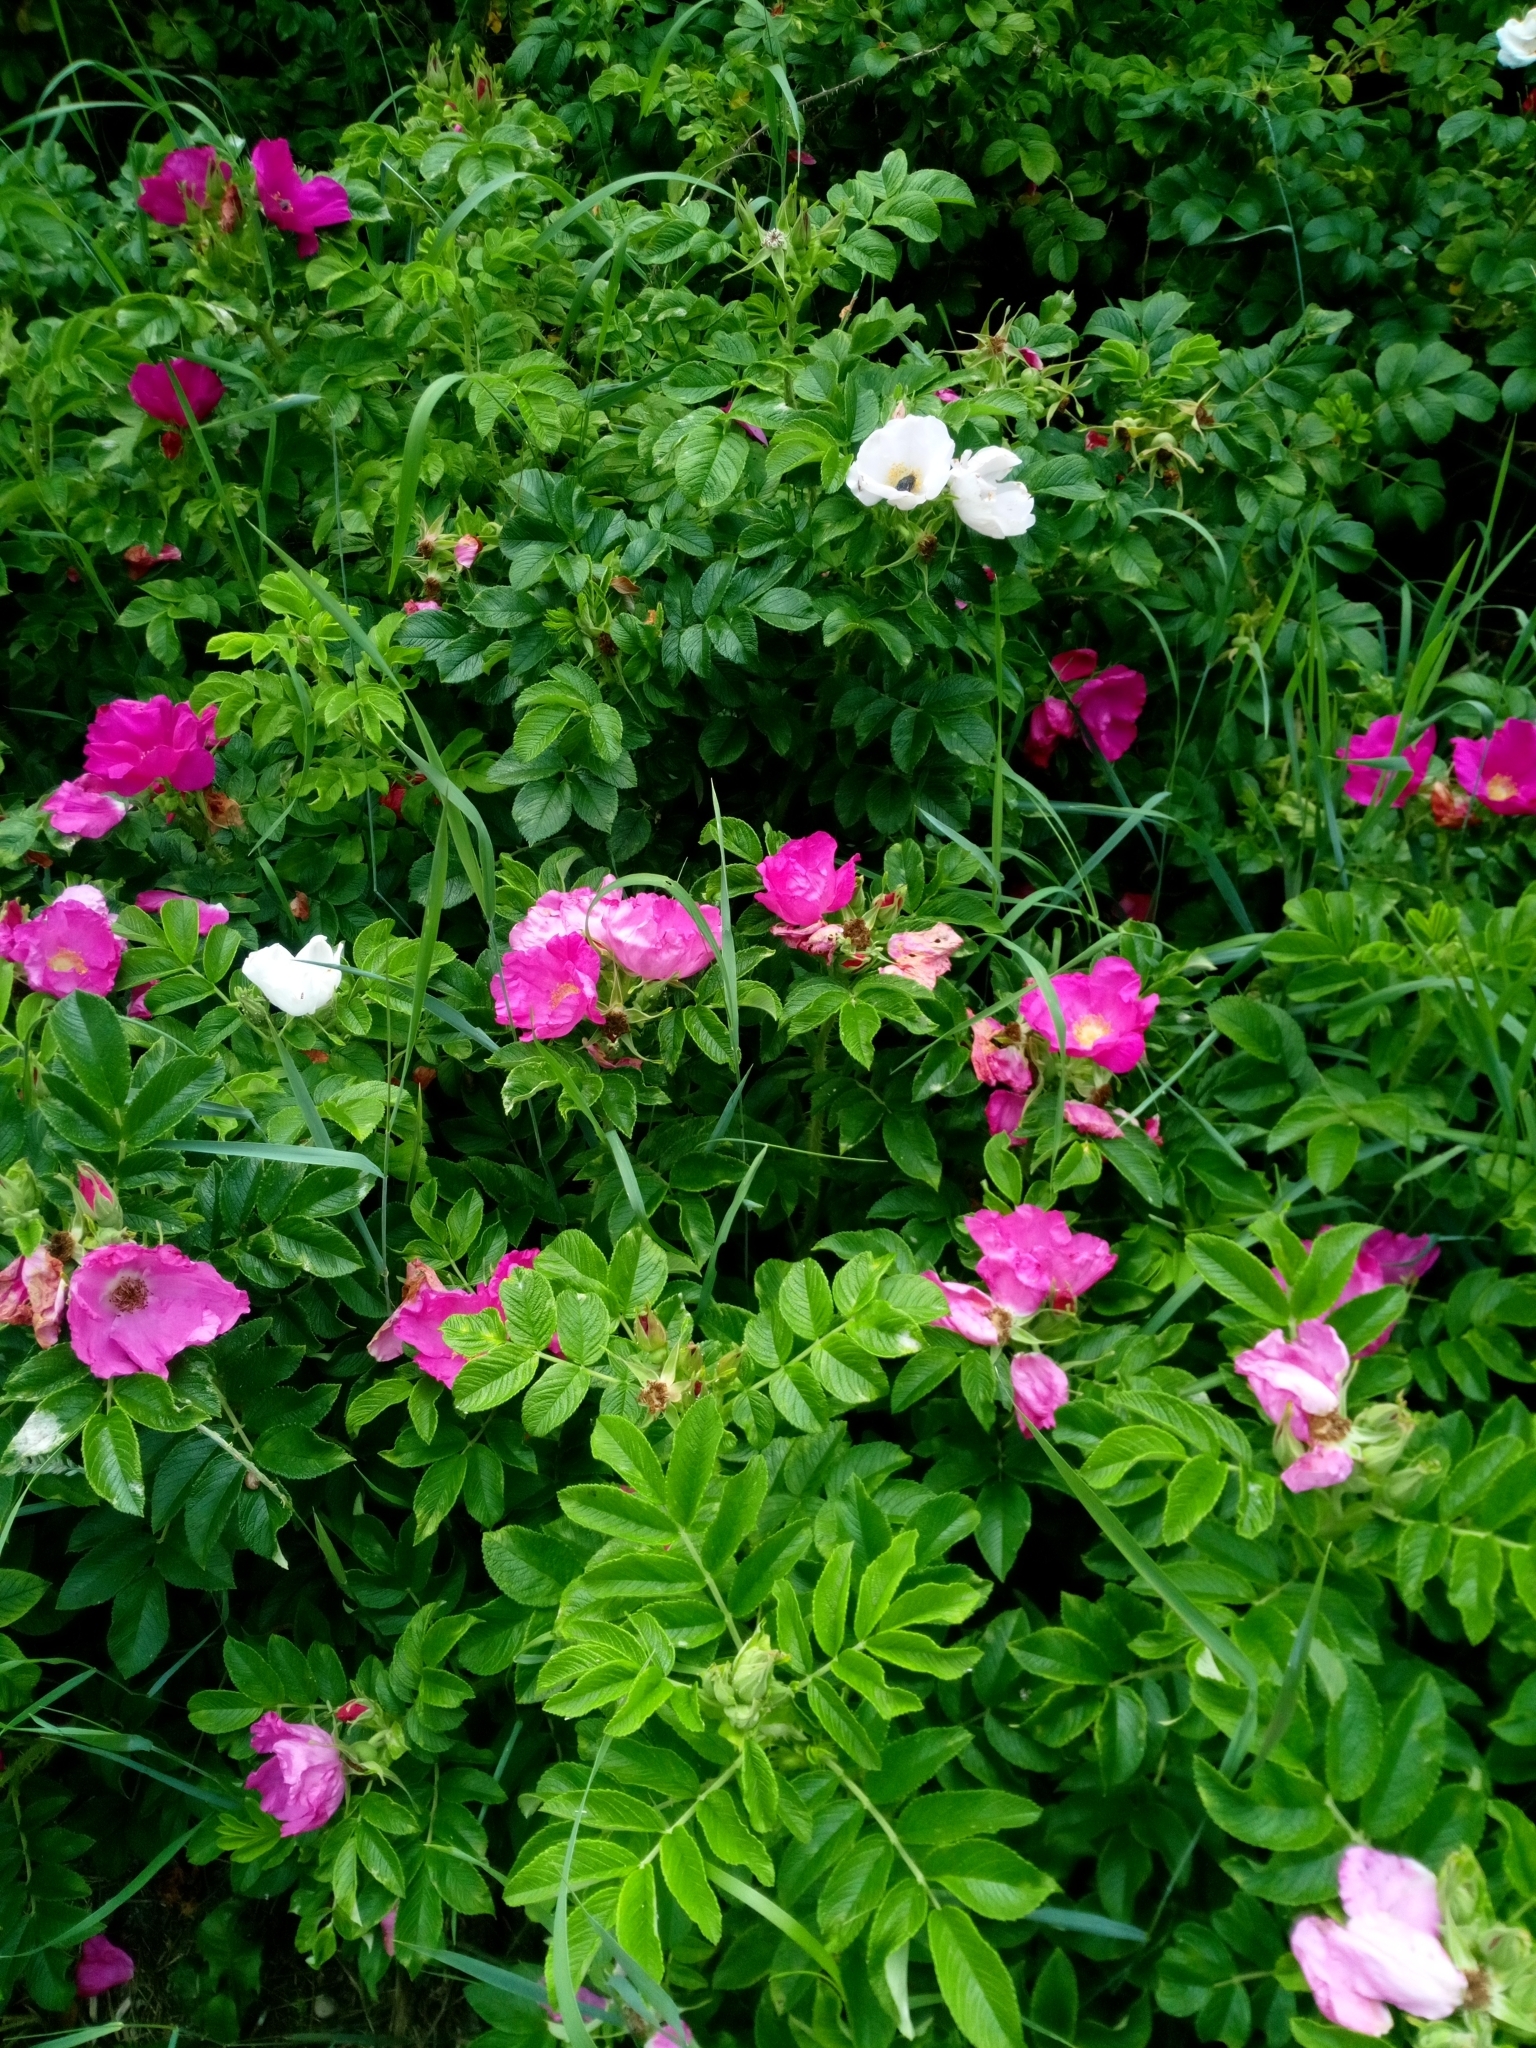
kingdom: Plantae
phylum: Tracheophyta
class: Magnoliopsida
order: Rosales
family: Rosaceae
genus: Rosa
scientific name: Rosa rugosa
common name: Japanese rose
